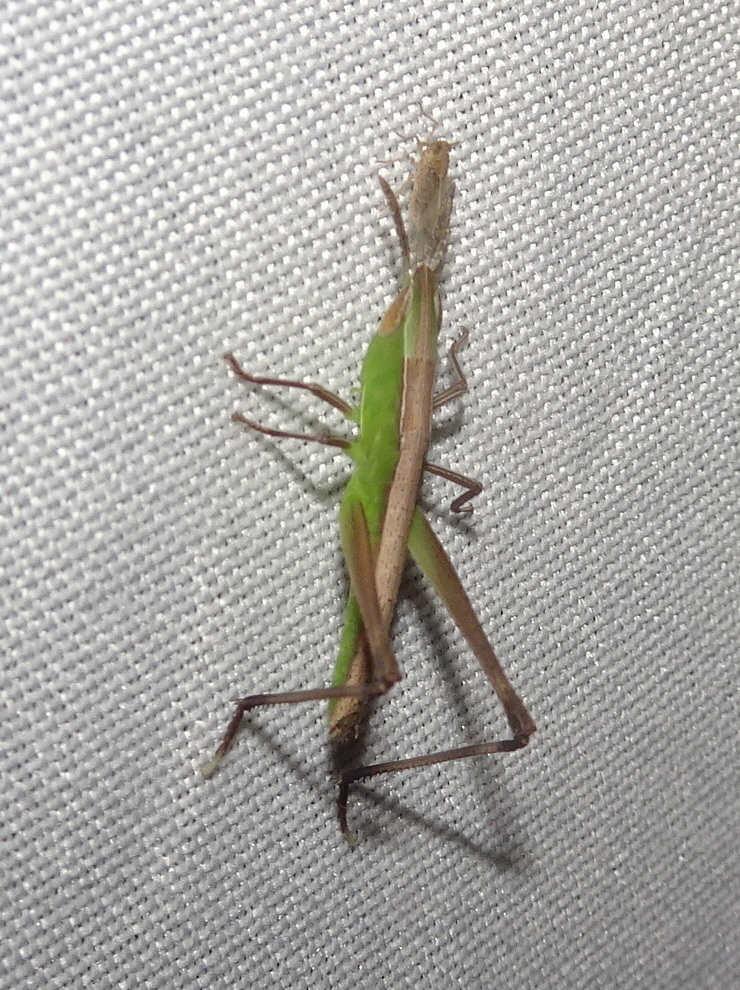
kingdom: Animalia
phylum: Arthropoda
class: Insecta
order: Orthoptera
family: Acrididae
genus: Syrbula
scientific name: Syrbula admirabilis
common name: Handsome grasshopper
